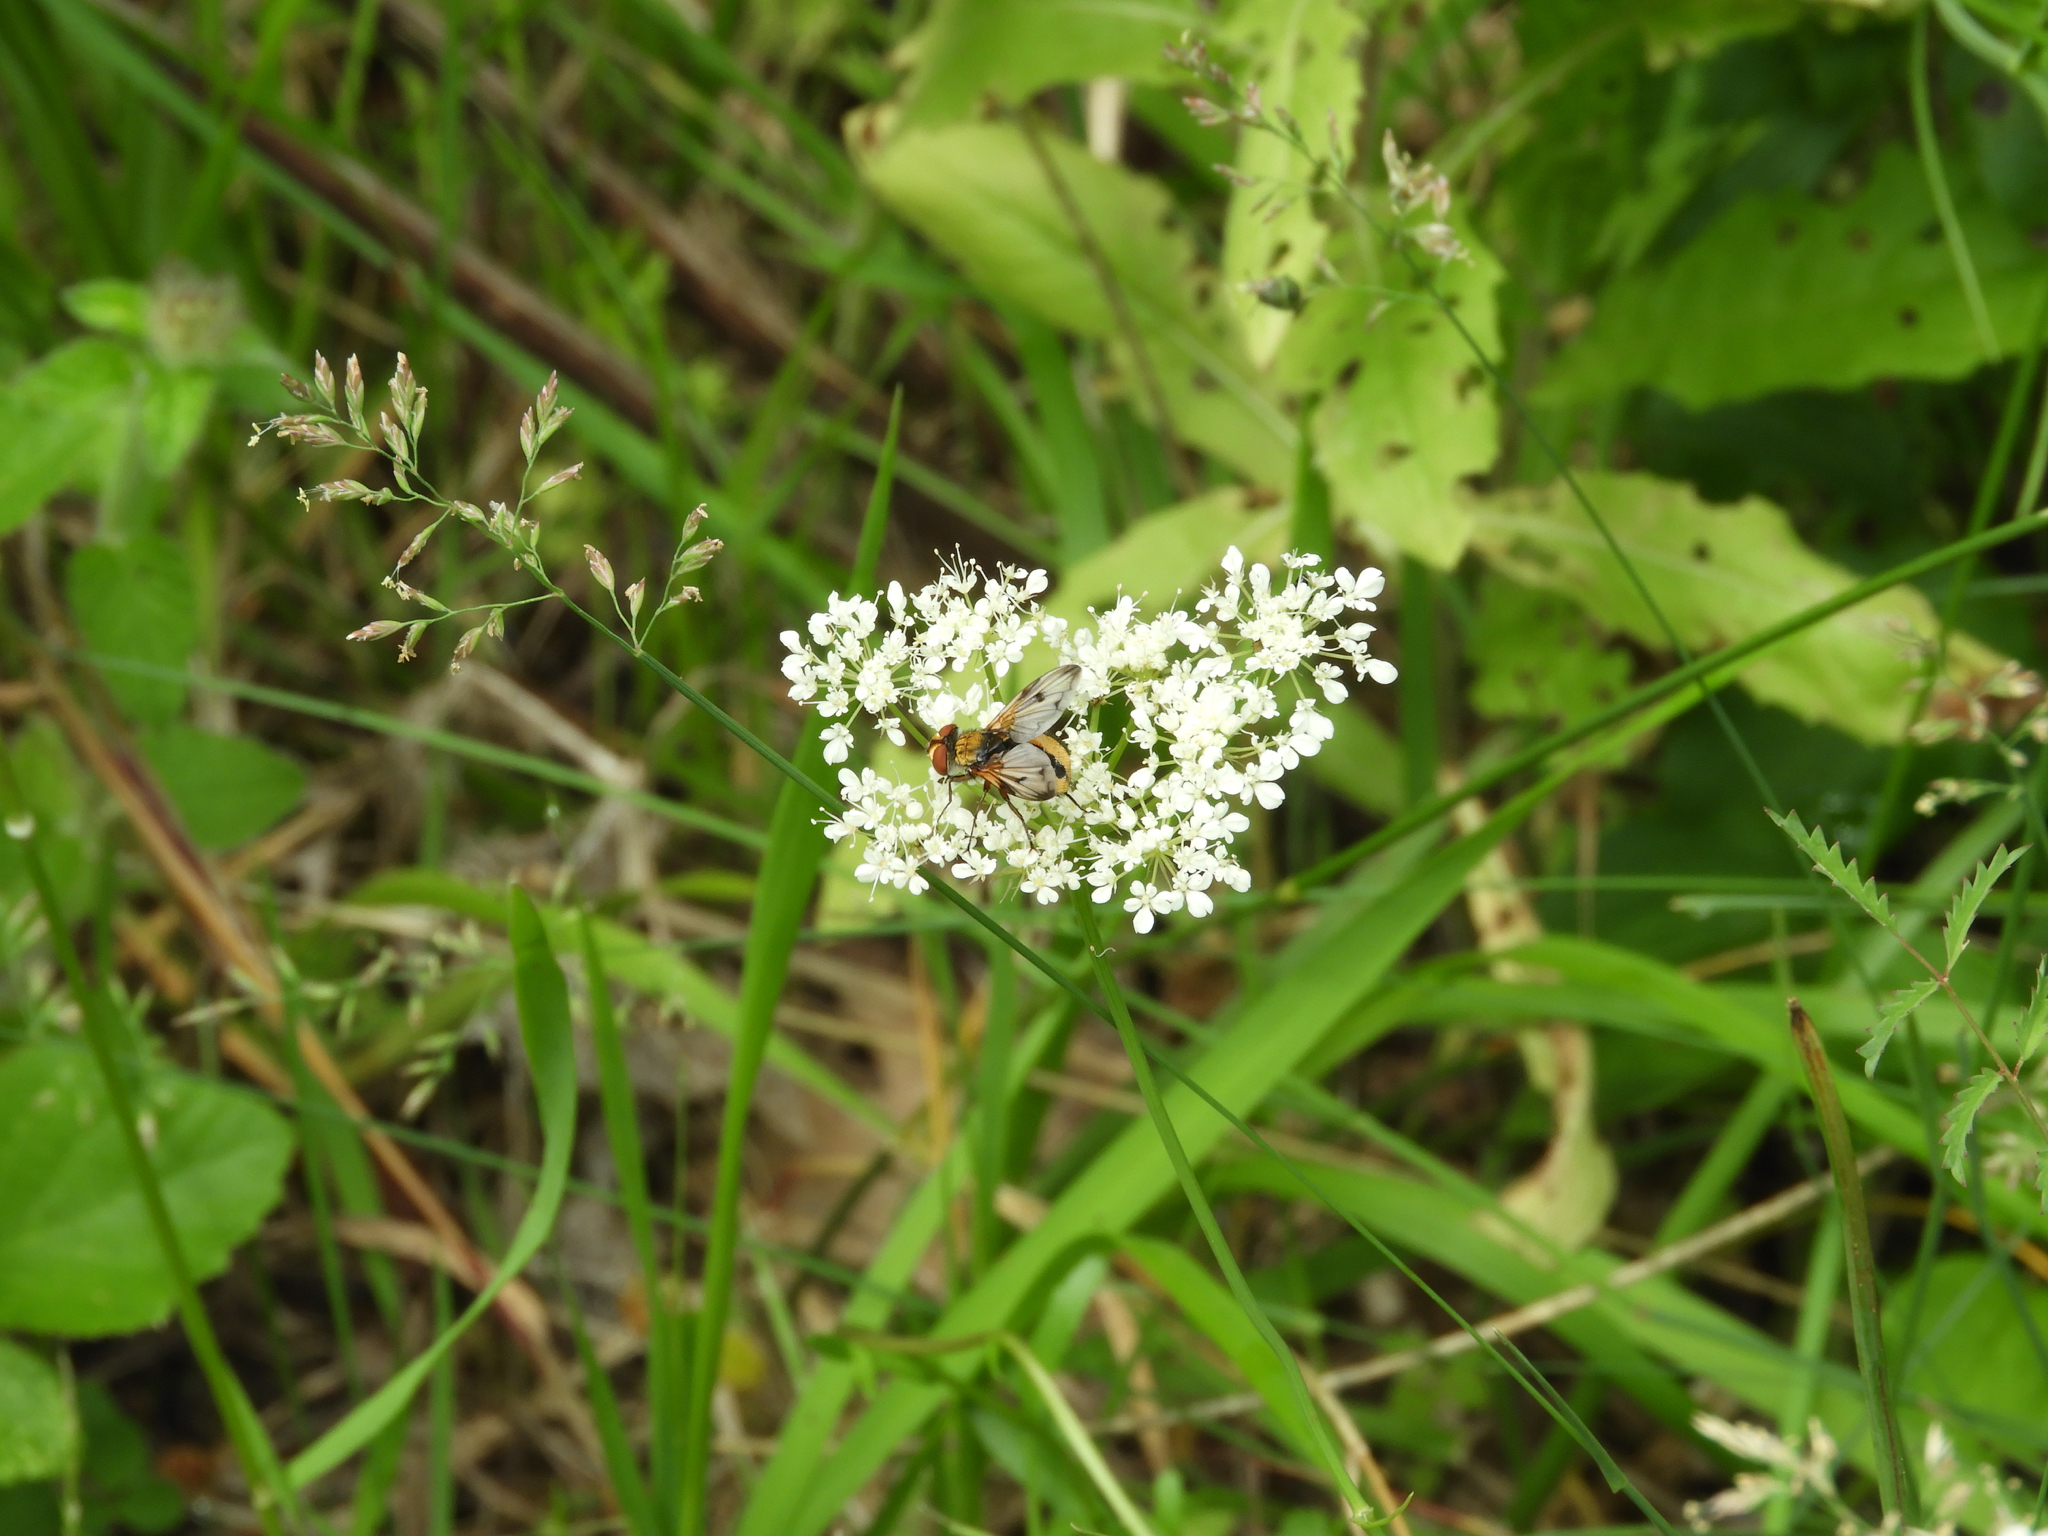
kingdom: Animalia
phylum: Arthropoda
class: Insecta
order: Diptera
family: Tachinidae
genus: Ectophasia
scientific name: Ectophasia
